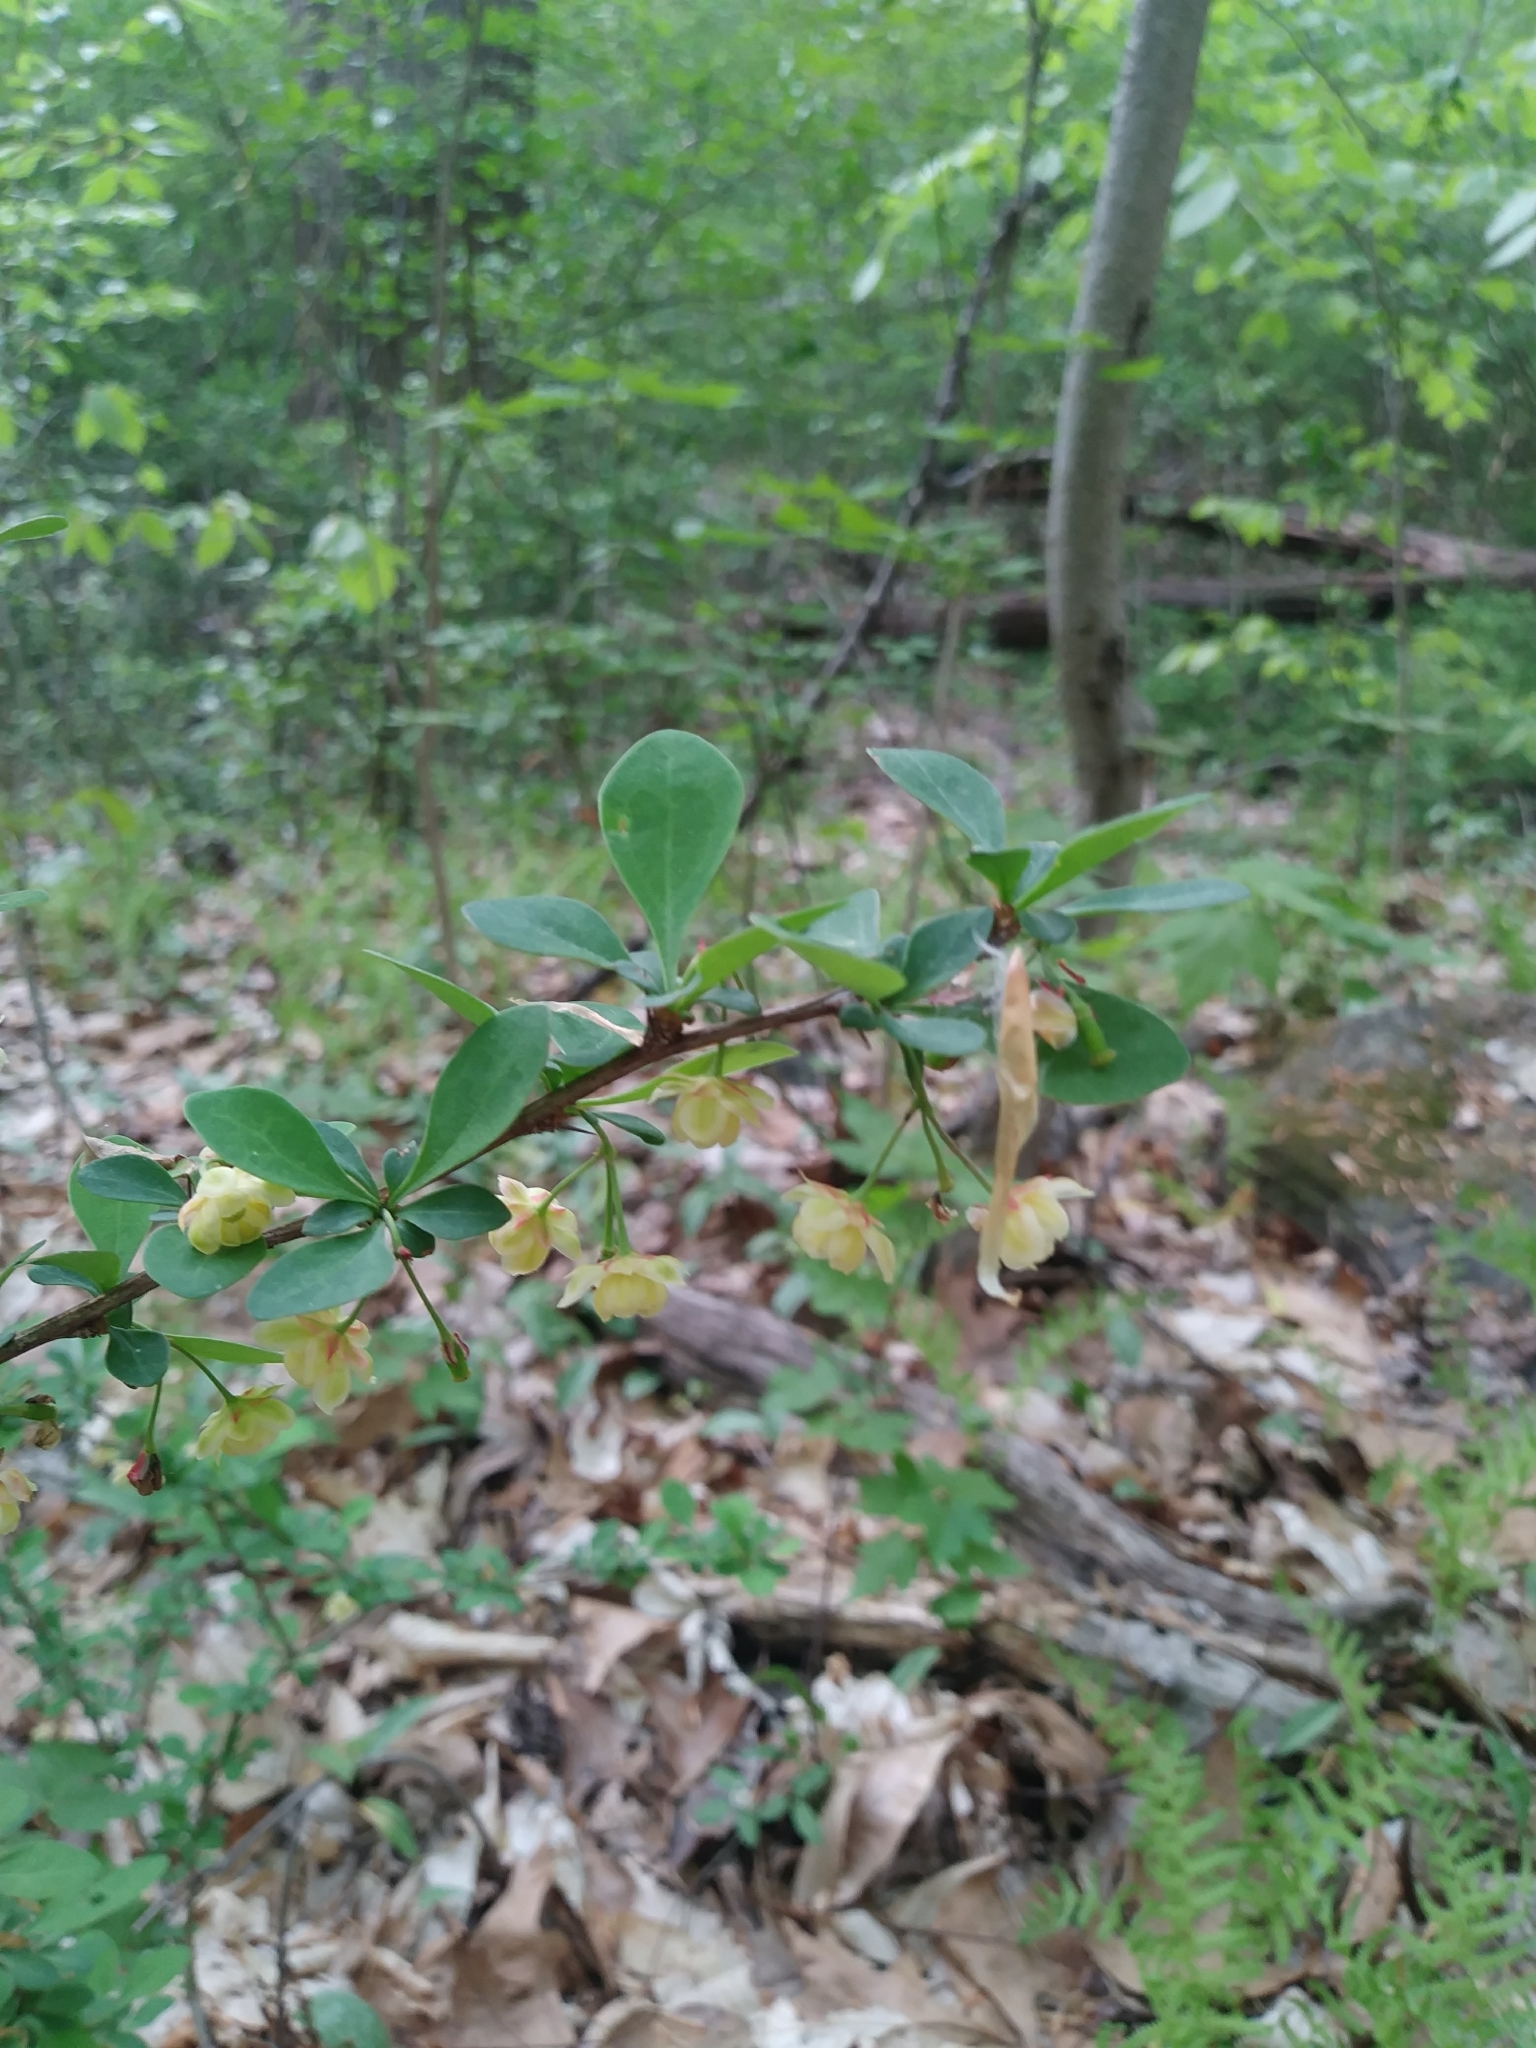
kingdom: Plantae
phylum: Tracheophyta
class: Magnoliopsida
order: Ranunculales
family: Berberidaceae
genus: Berberis
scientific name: Berberis thunbergii
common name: Japanese barberry
